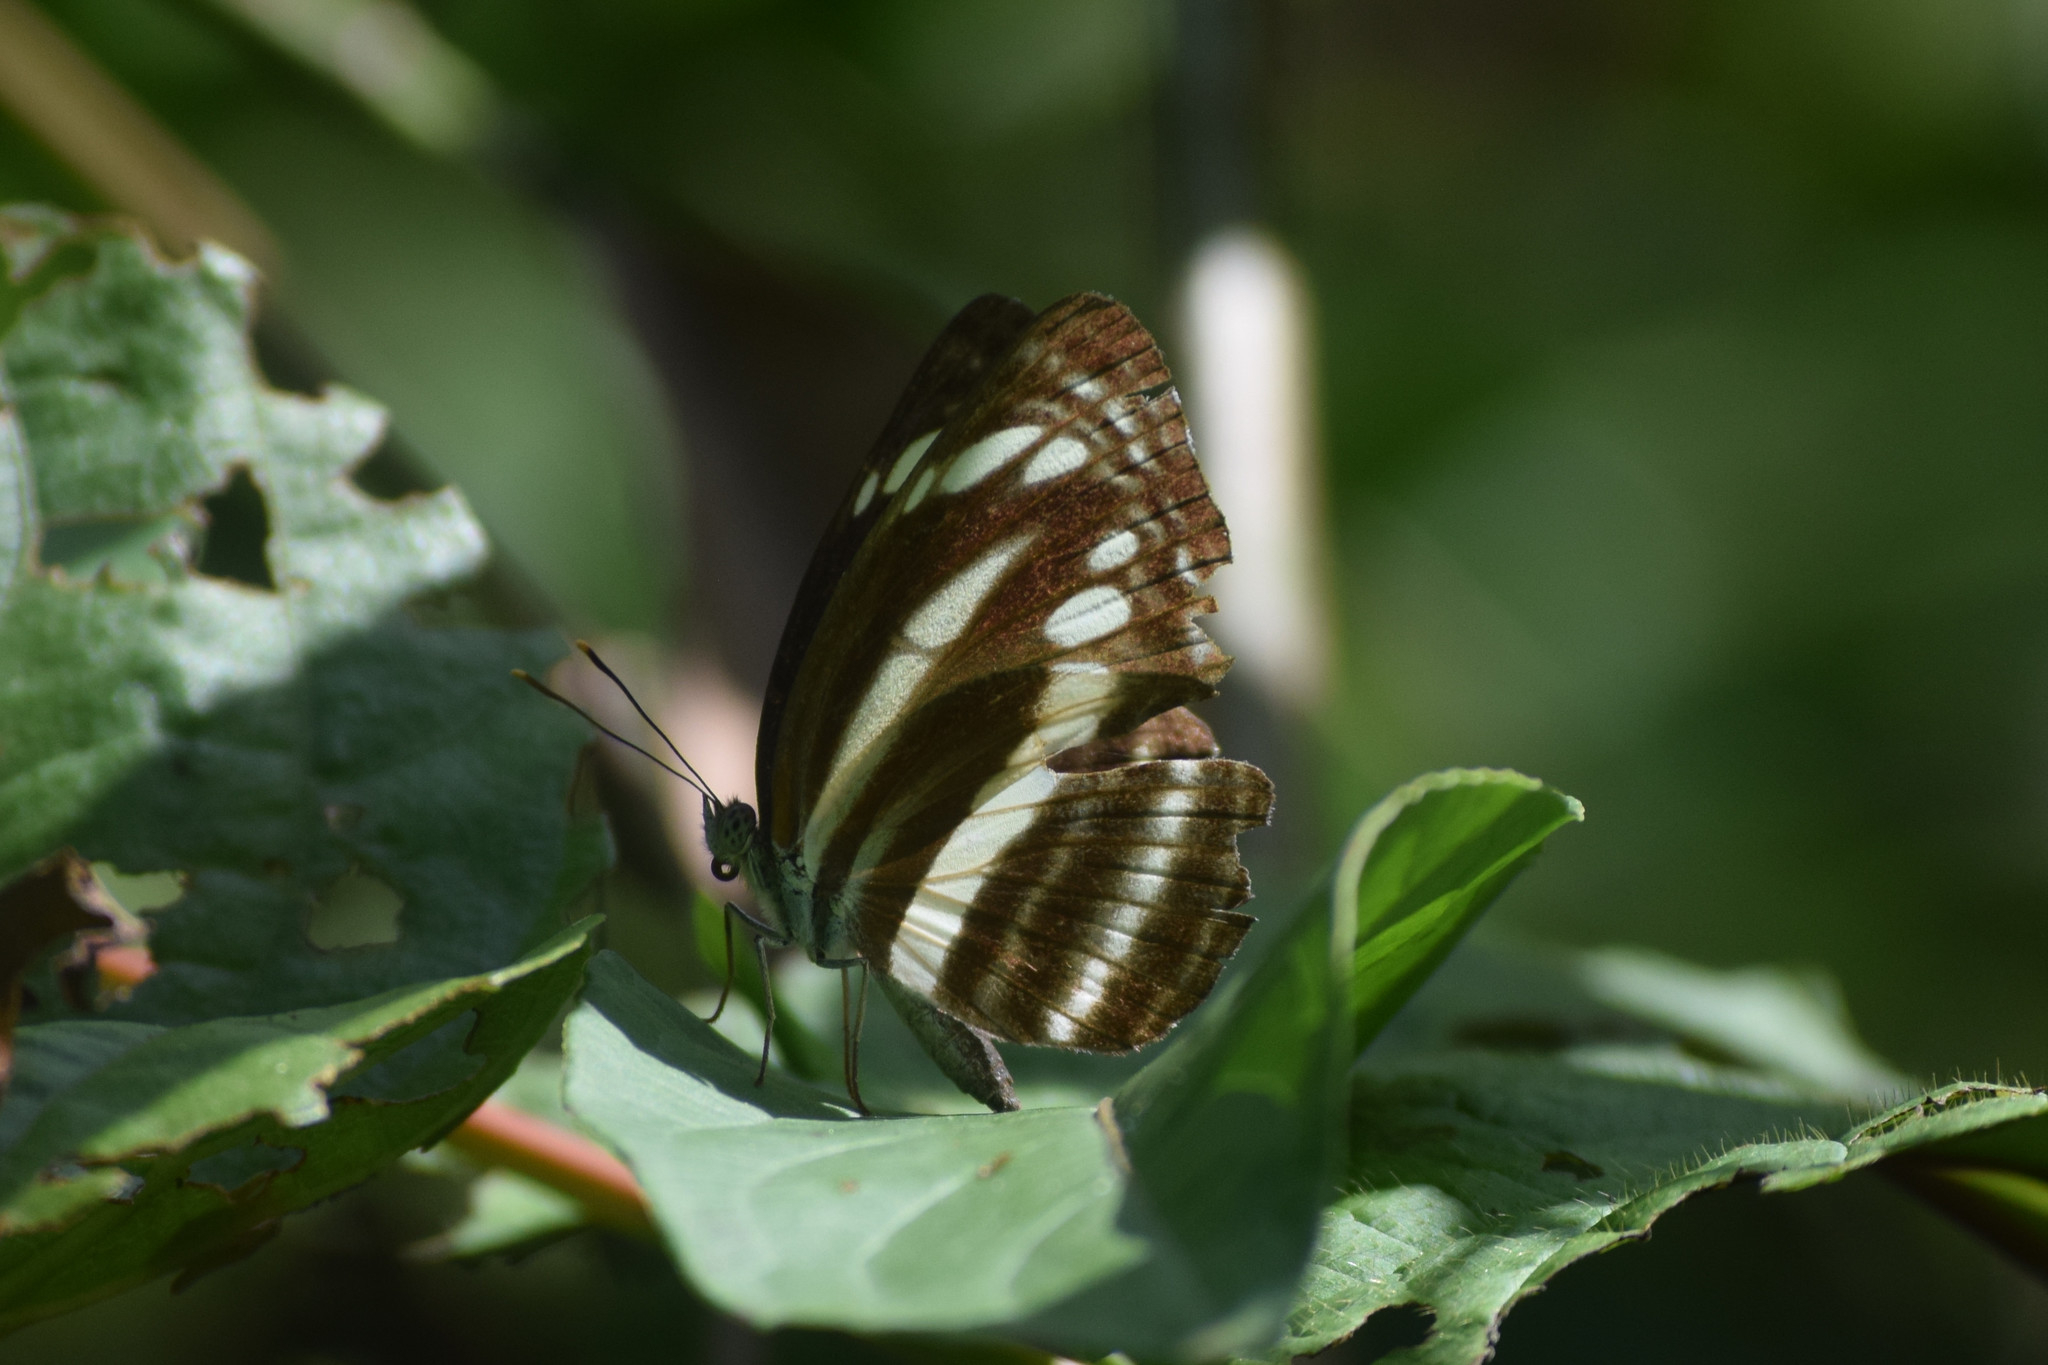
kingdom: Animalia
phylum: Arthropoda
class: Insecta
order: Lepidoptera
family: Nymphalidae
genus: Neptis
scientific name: Neptis clinia
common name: Southern sullied sailer
